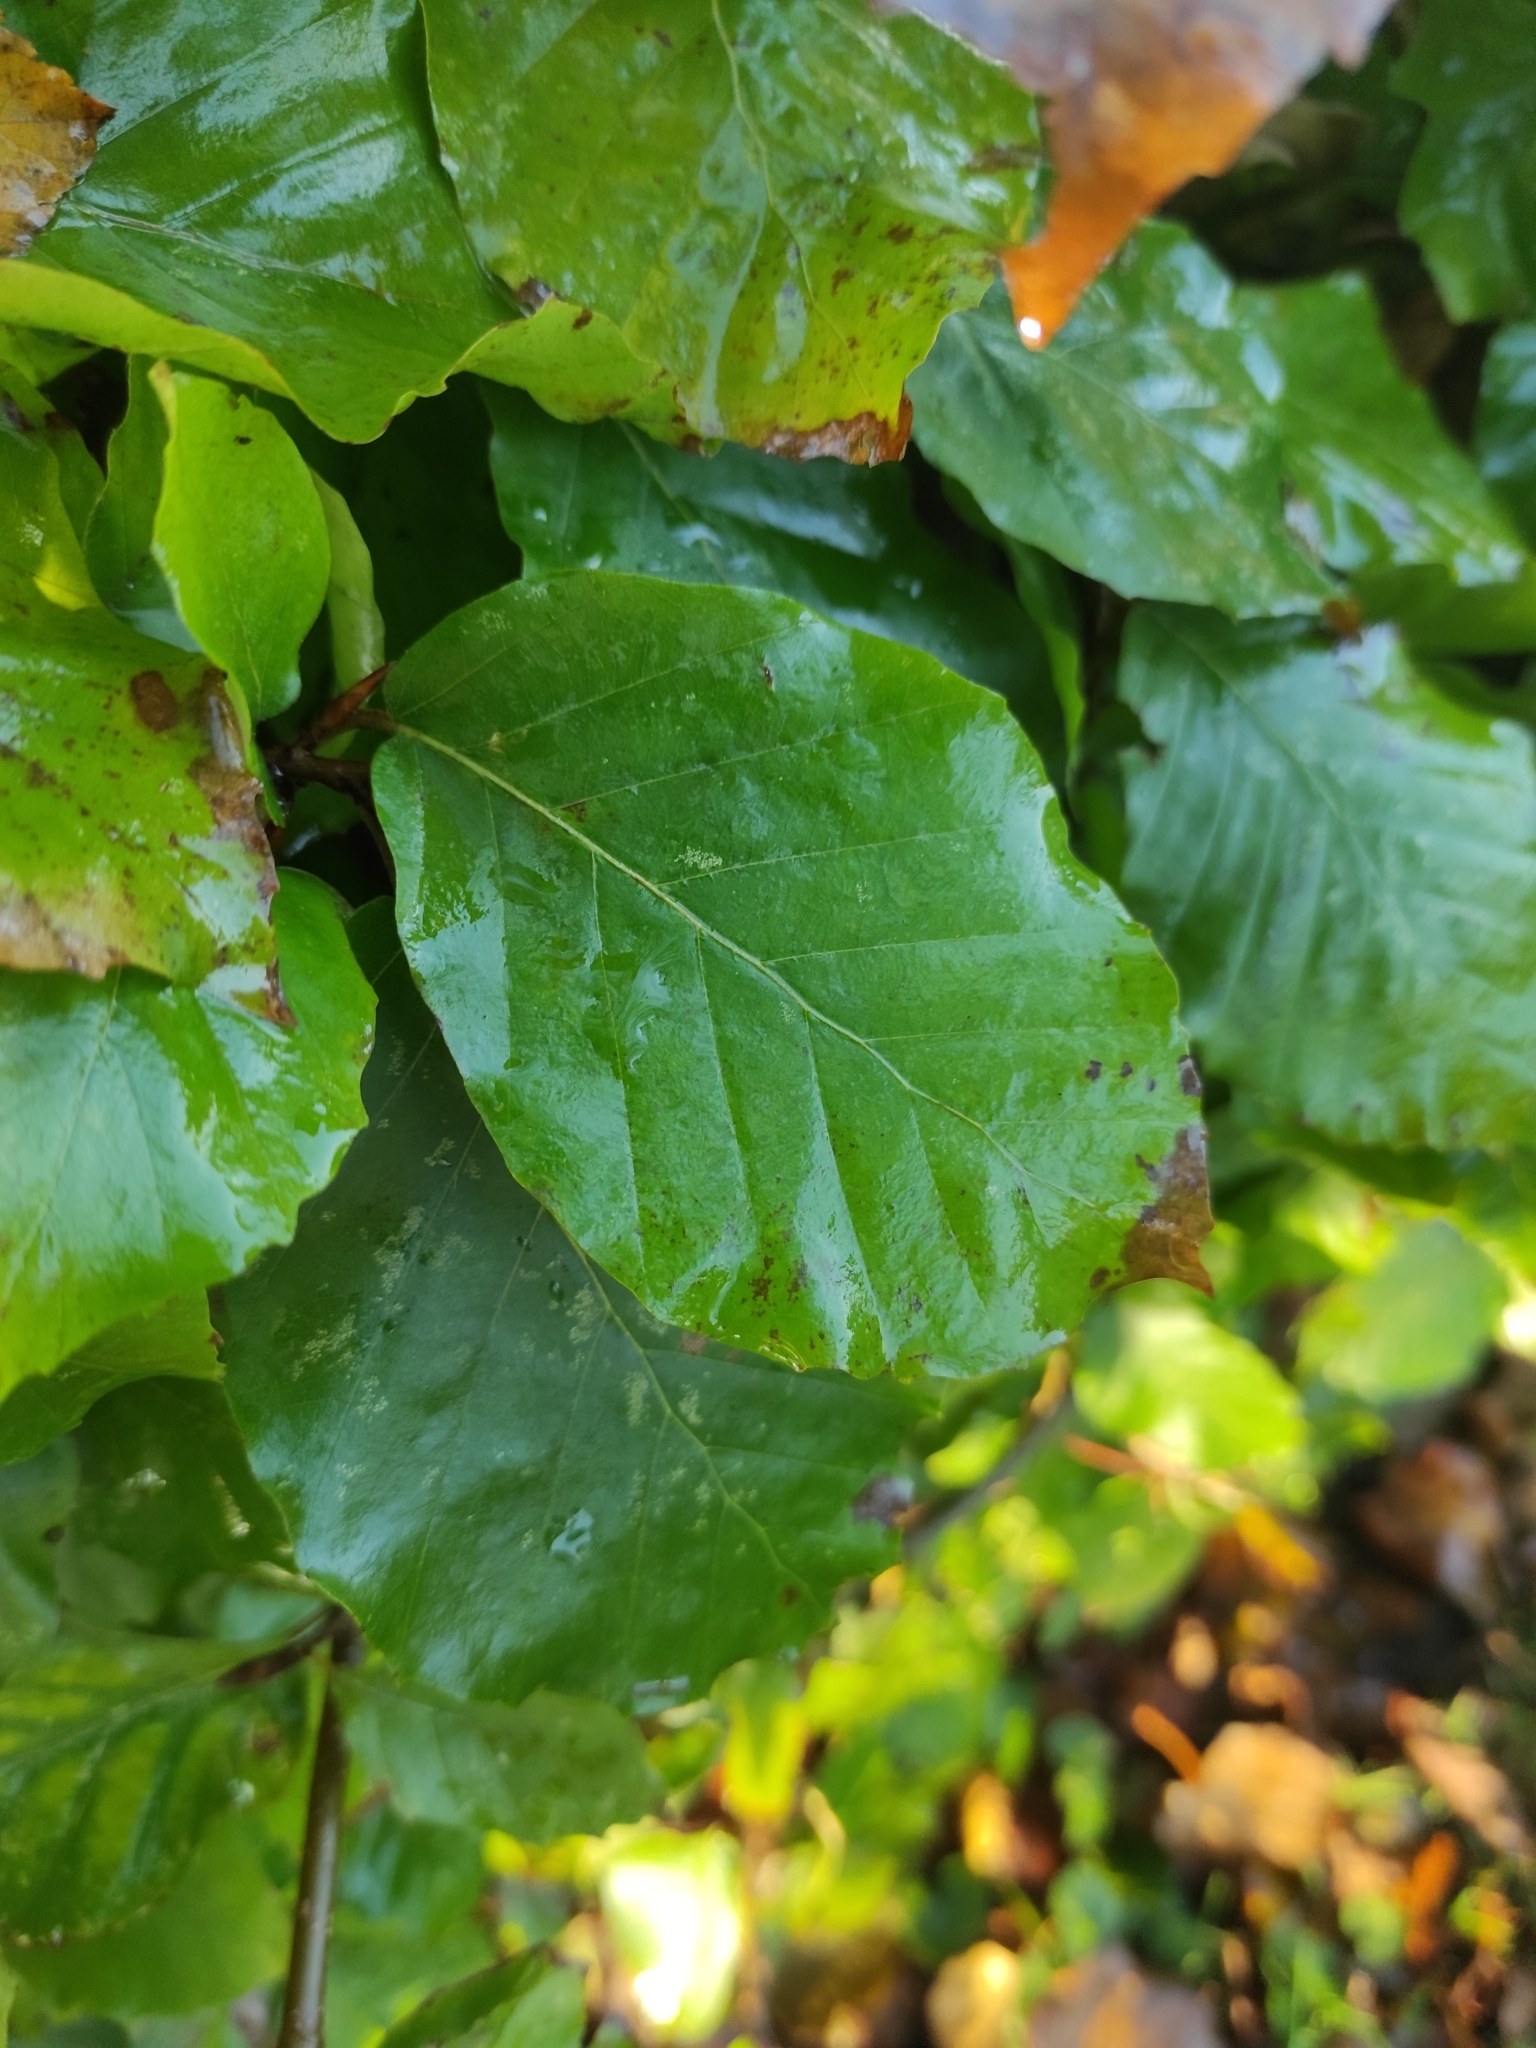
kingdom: Plantae
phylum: Tracheophyta
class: Magnoliopsida
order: Fagales
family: Fagaceae
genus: Fagus
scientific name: Fagus sylvatica
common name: Beech
